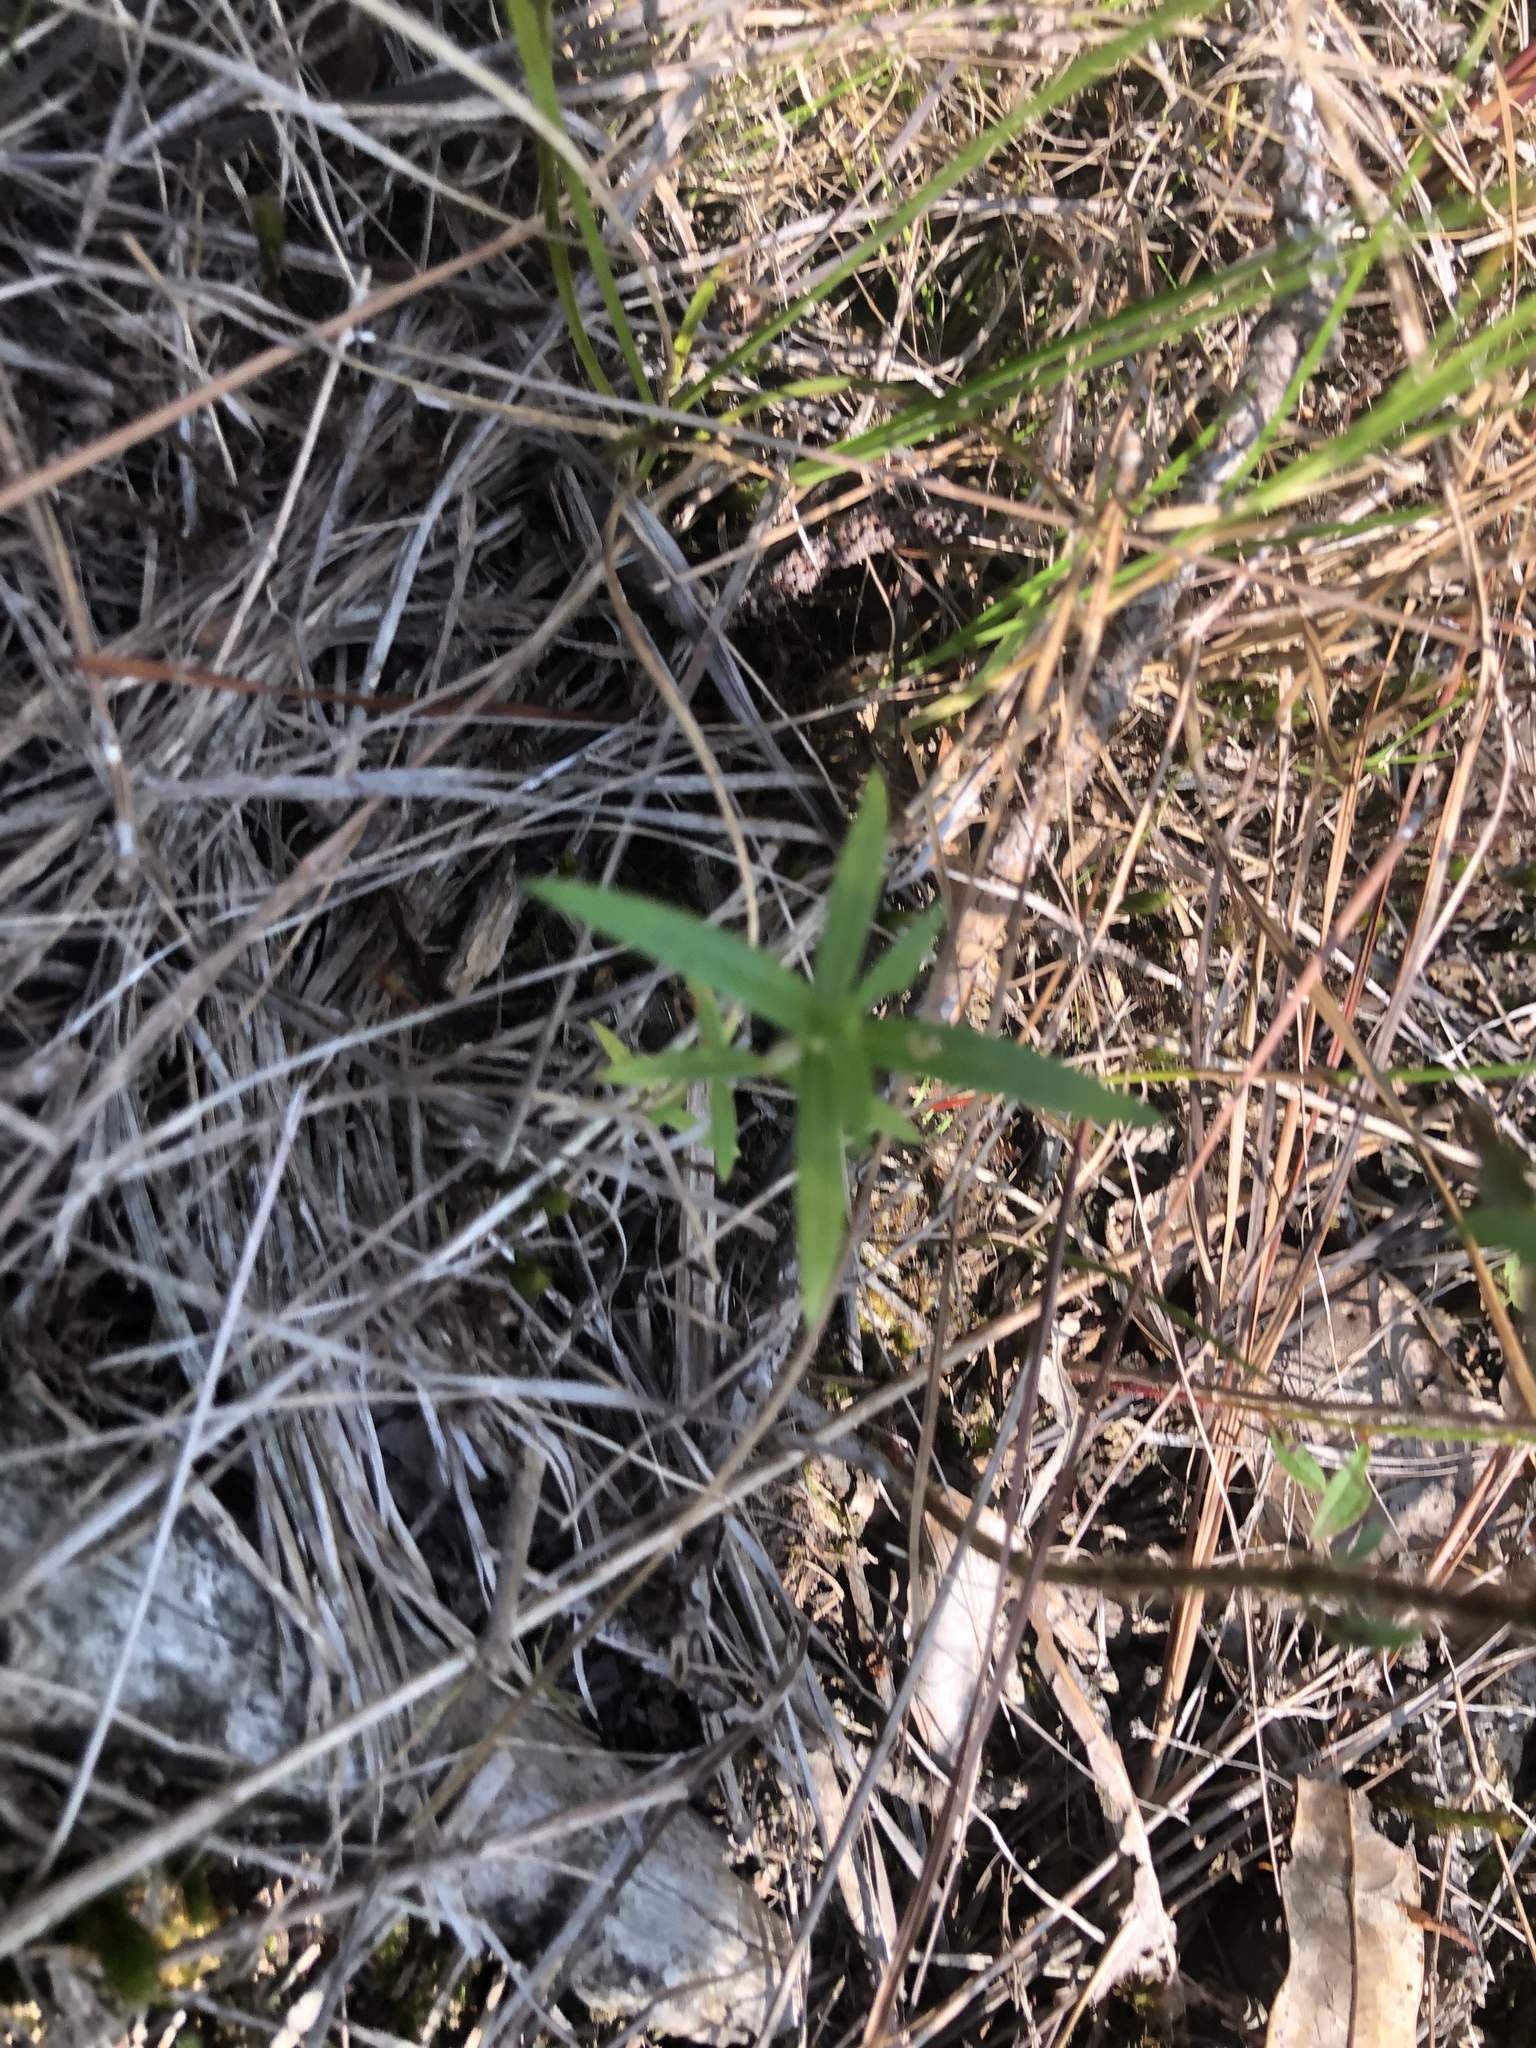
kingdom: Plantae
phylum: Tracheophyta
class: Liliopsida
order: Poales
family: Xyridaceae
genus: Xyris
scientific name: Xyris torta
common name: Common yelloweyed grass
